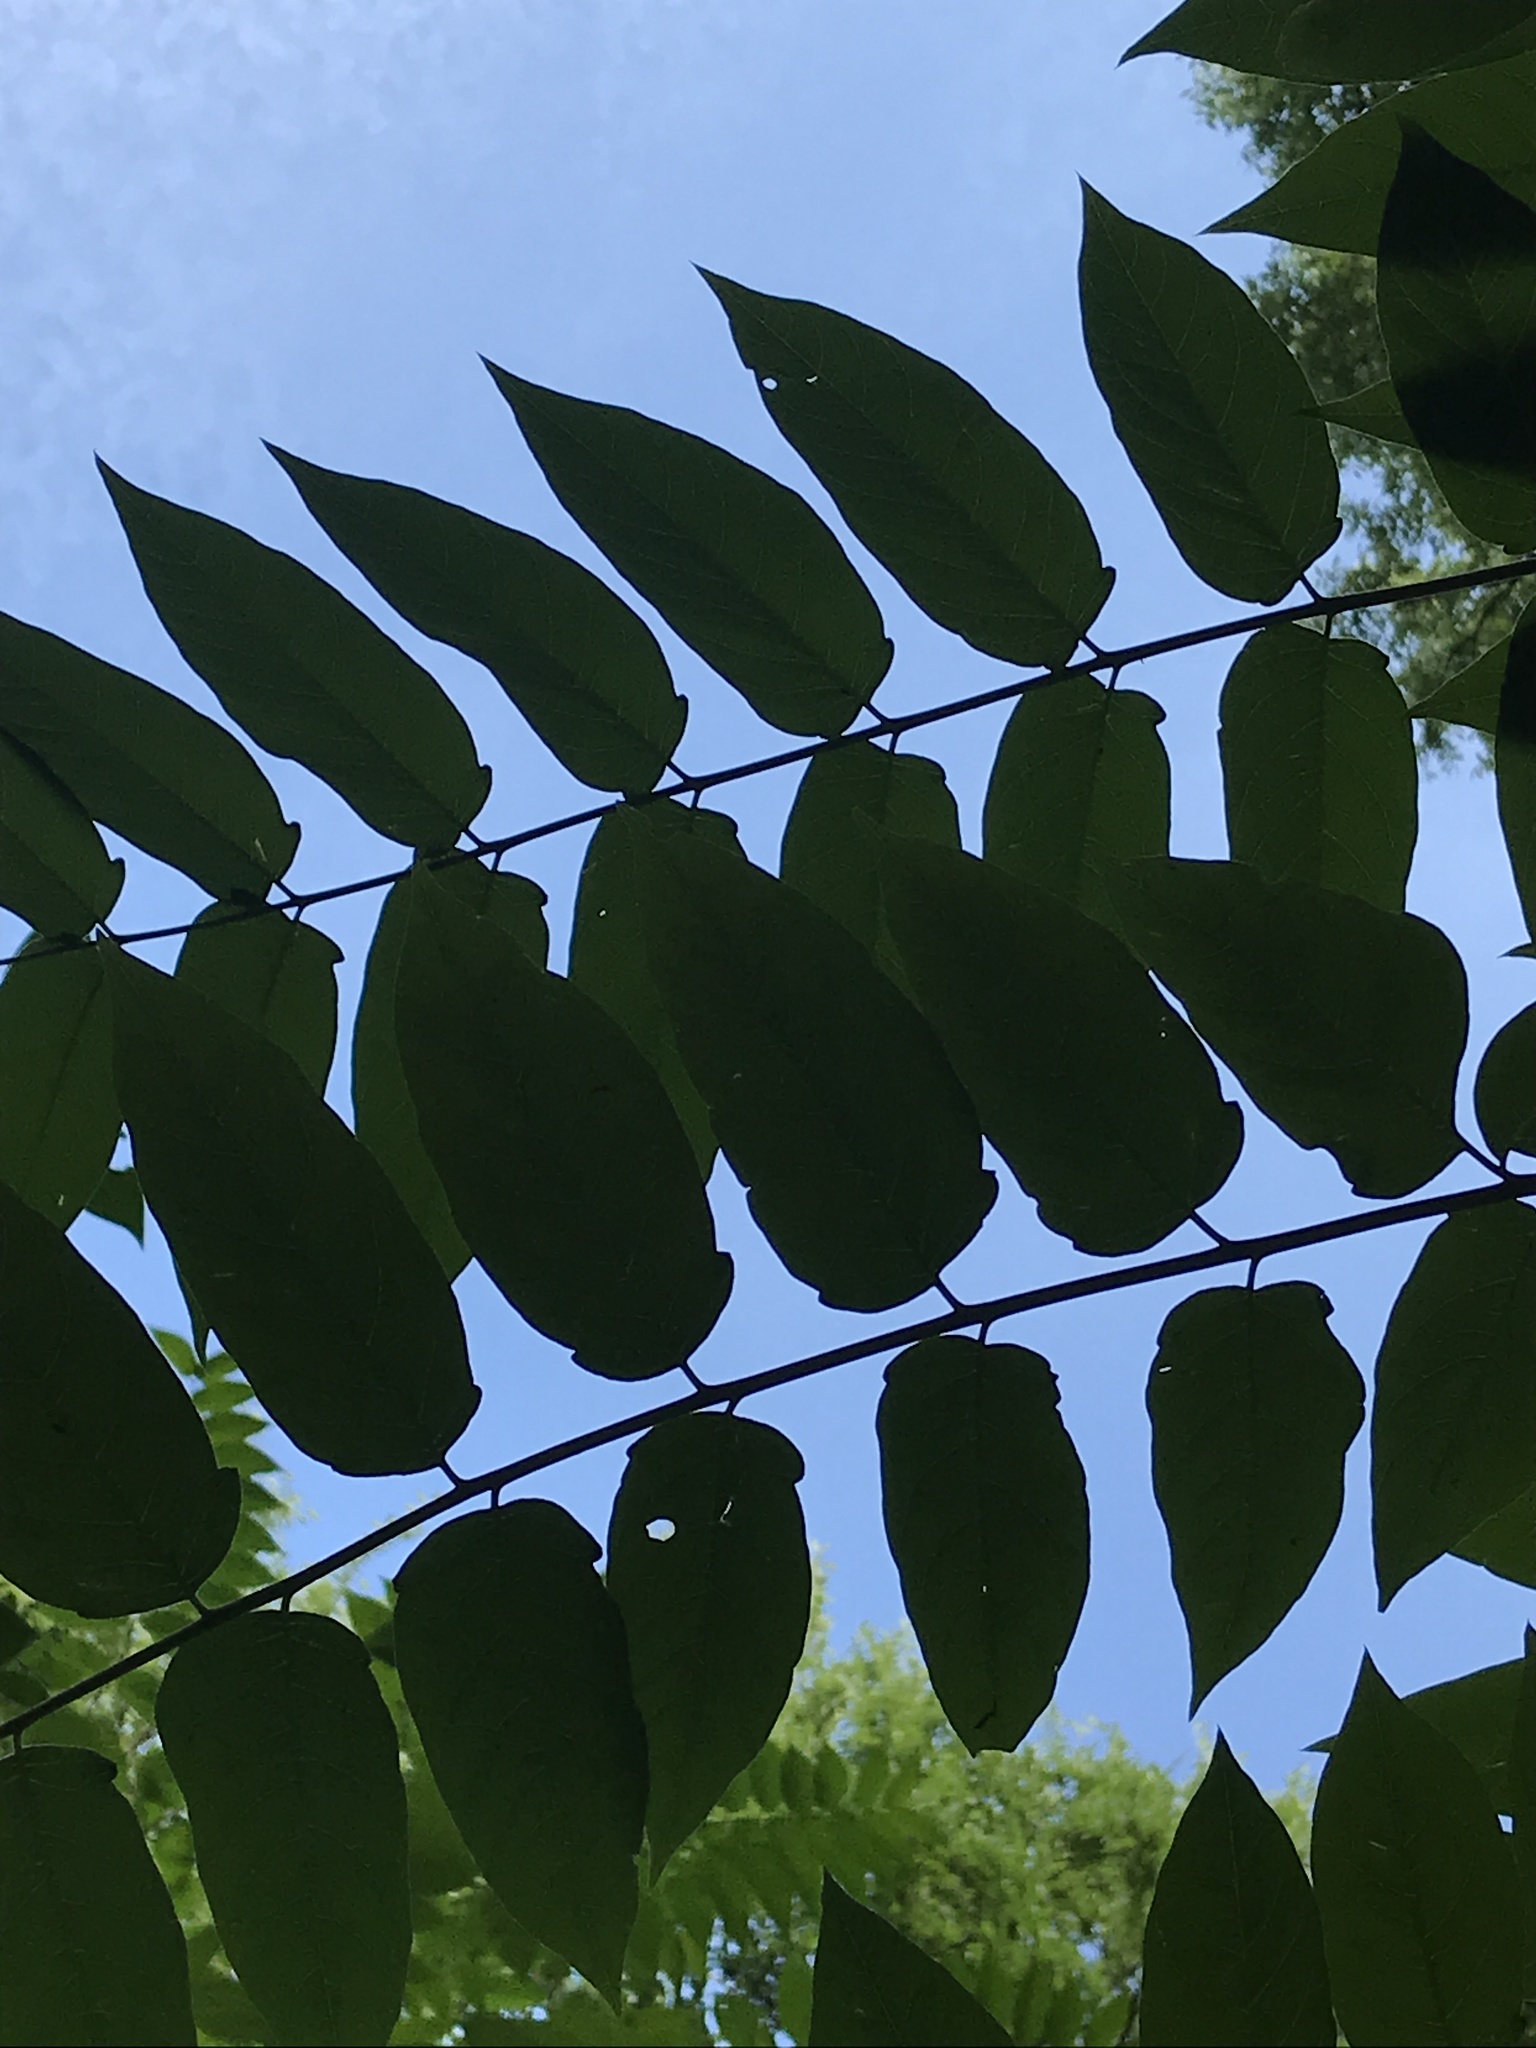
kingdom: Plantae
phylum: Tracheophyta
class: Magnoliopsida
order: Sapindales
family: Simaroubaceae
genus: Ailanthus
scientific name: Ailanthus altissima
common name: Tree-of-heaven
